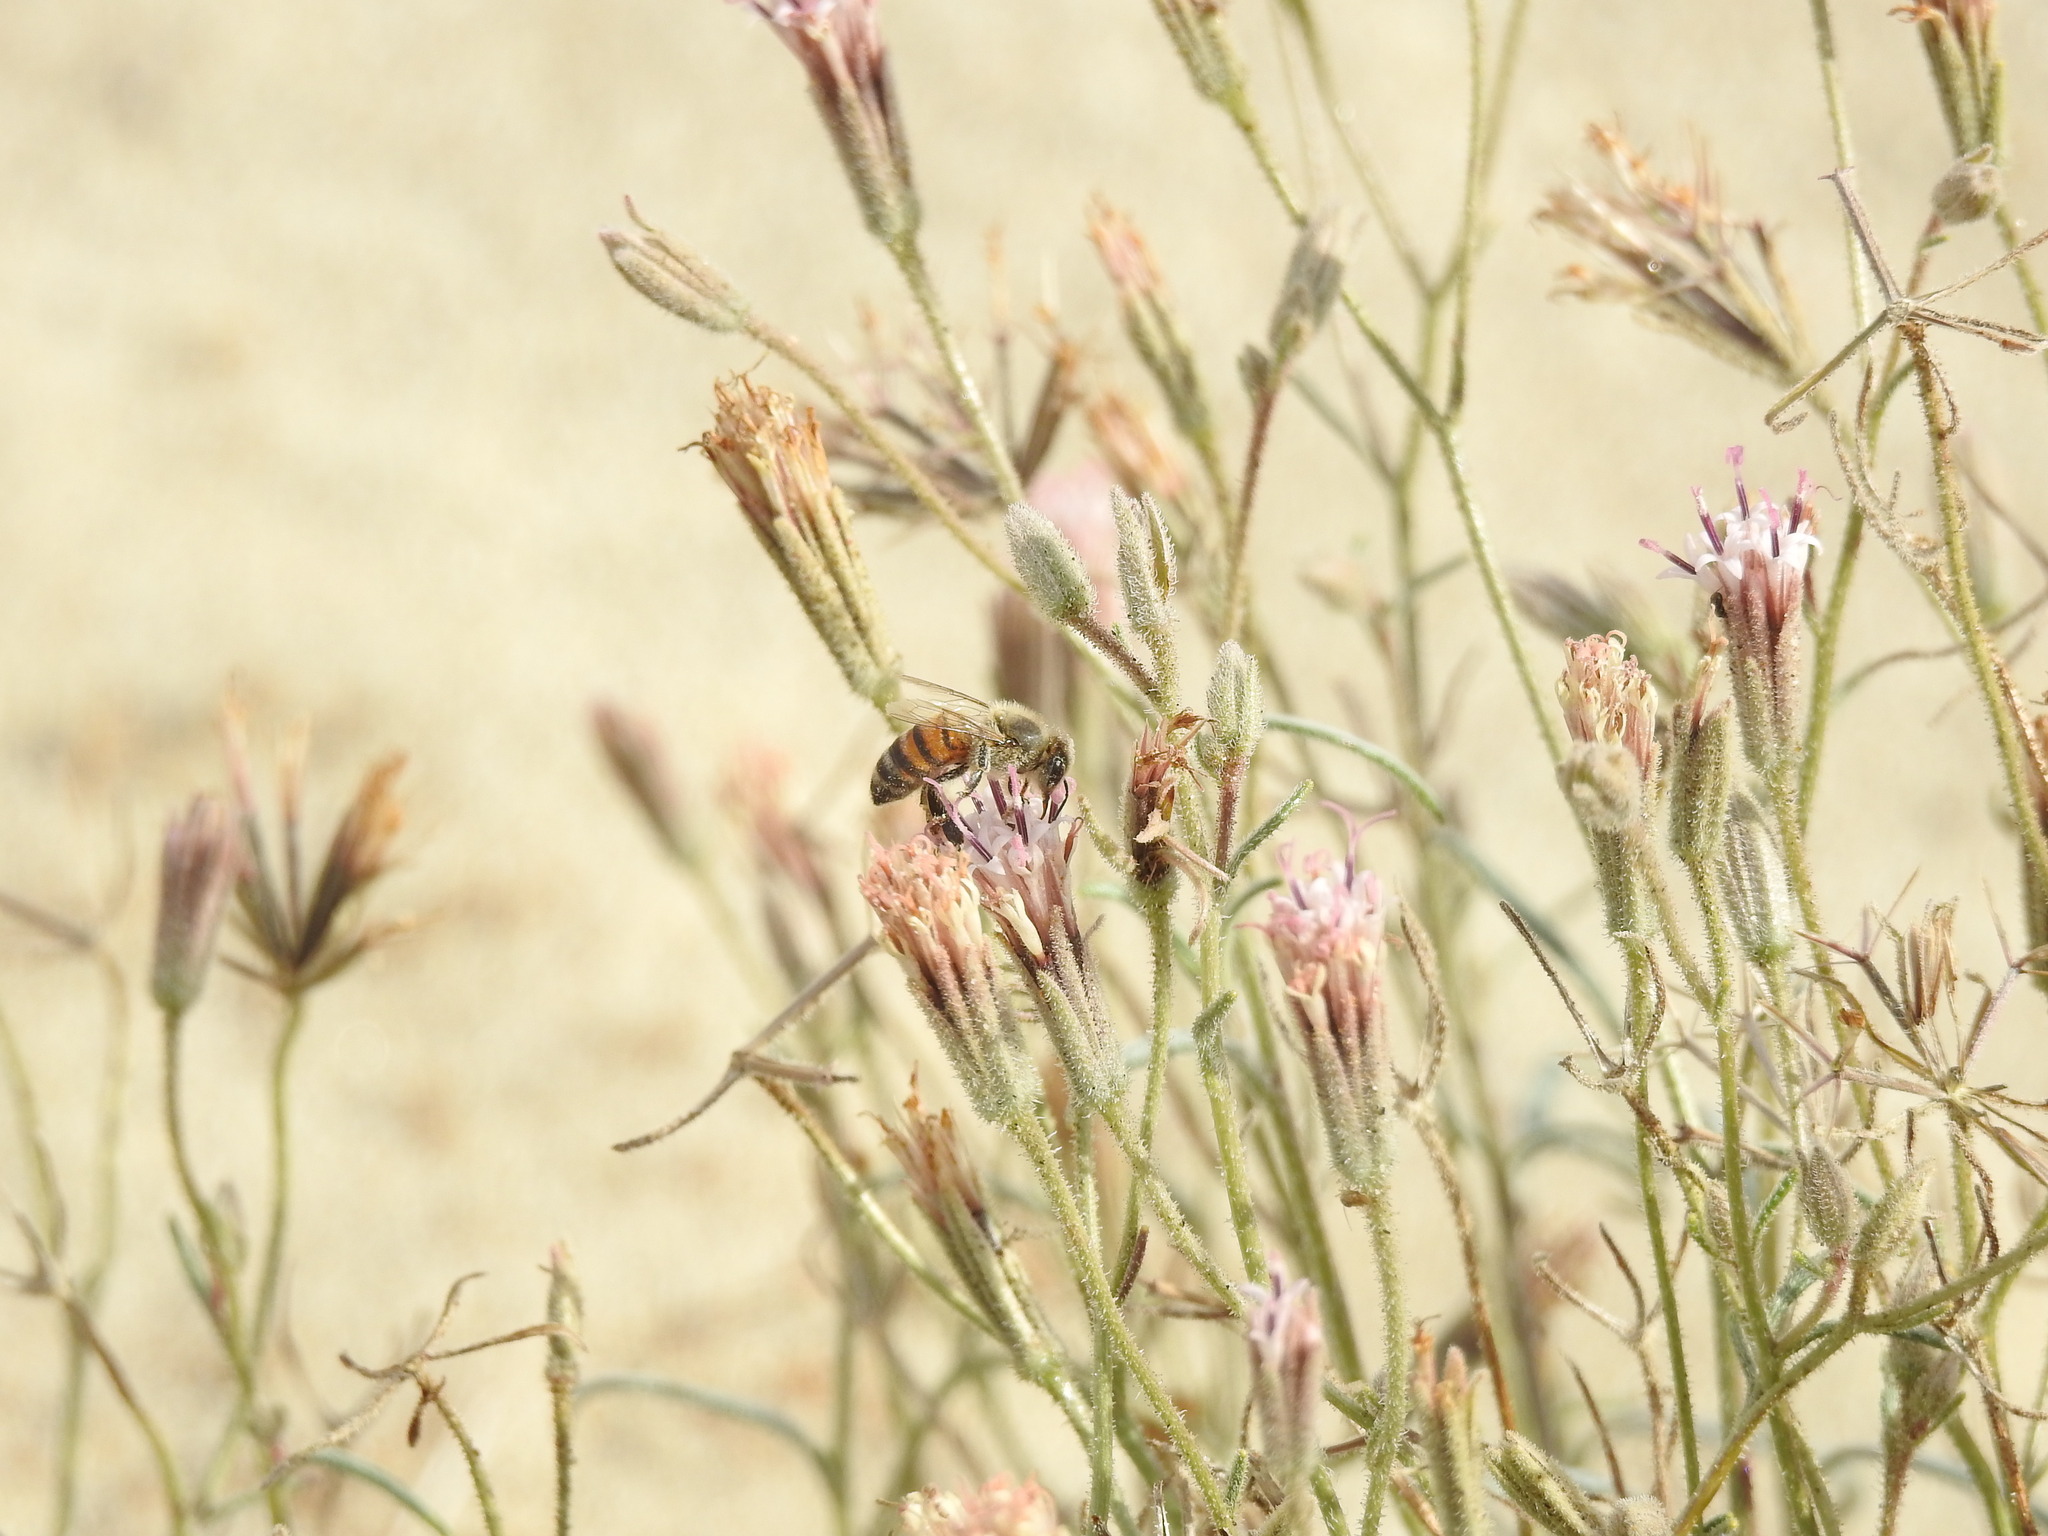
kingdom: Animalia
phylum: Arthropoda
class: Insecta
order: Hymenoptera
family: Apidae
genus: Apis
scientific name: Apis mellifera
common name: Honey bee
